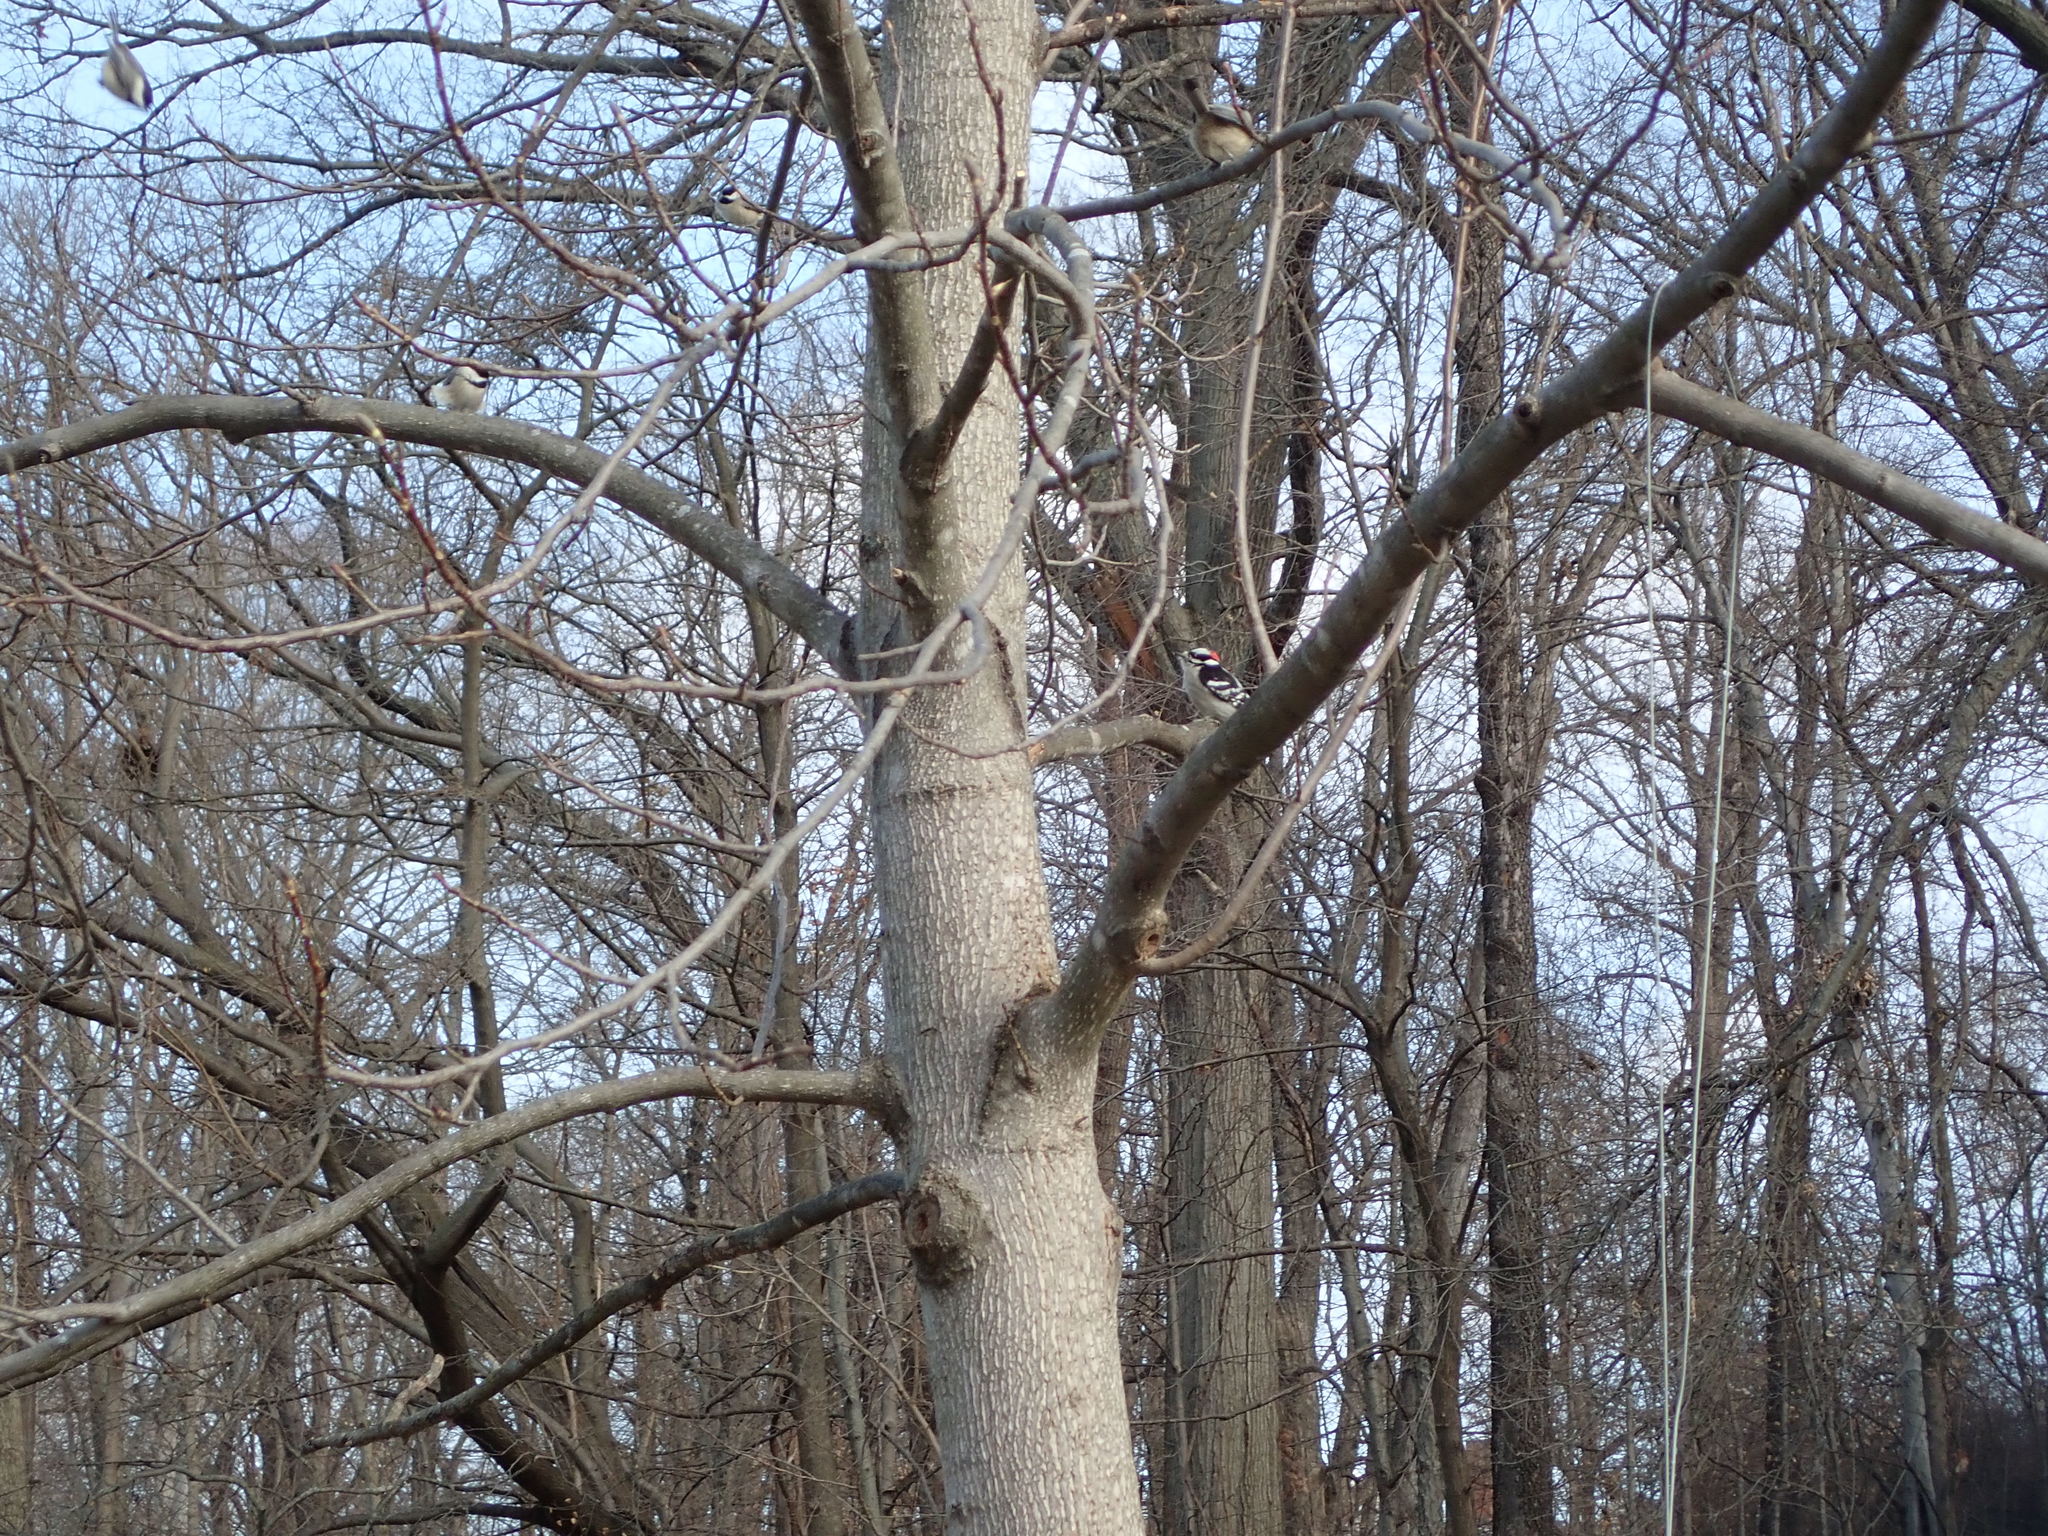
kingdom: Animalia
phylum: Chordata
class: Aves
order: Piciformes
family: Picidae
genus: Dryobates
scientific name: Dryobates pubescens
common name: Downy woodpecker
